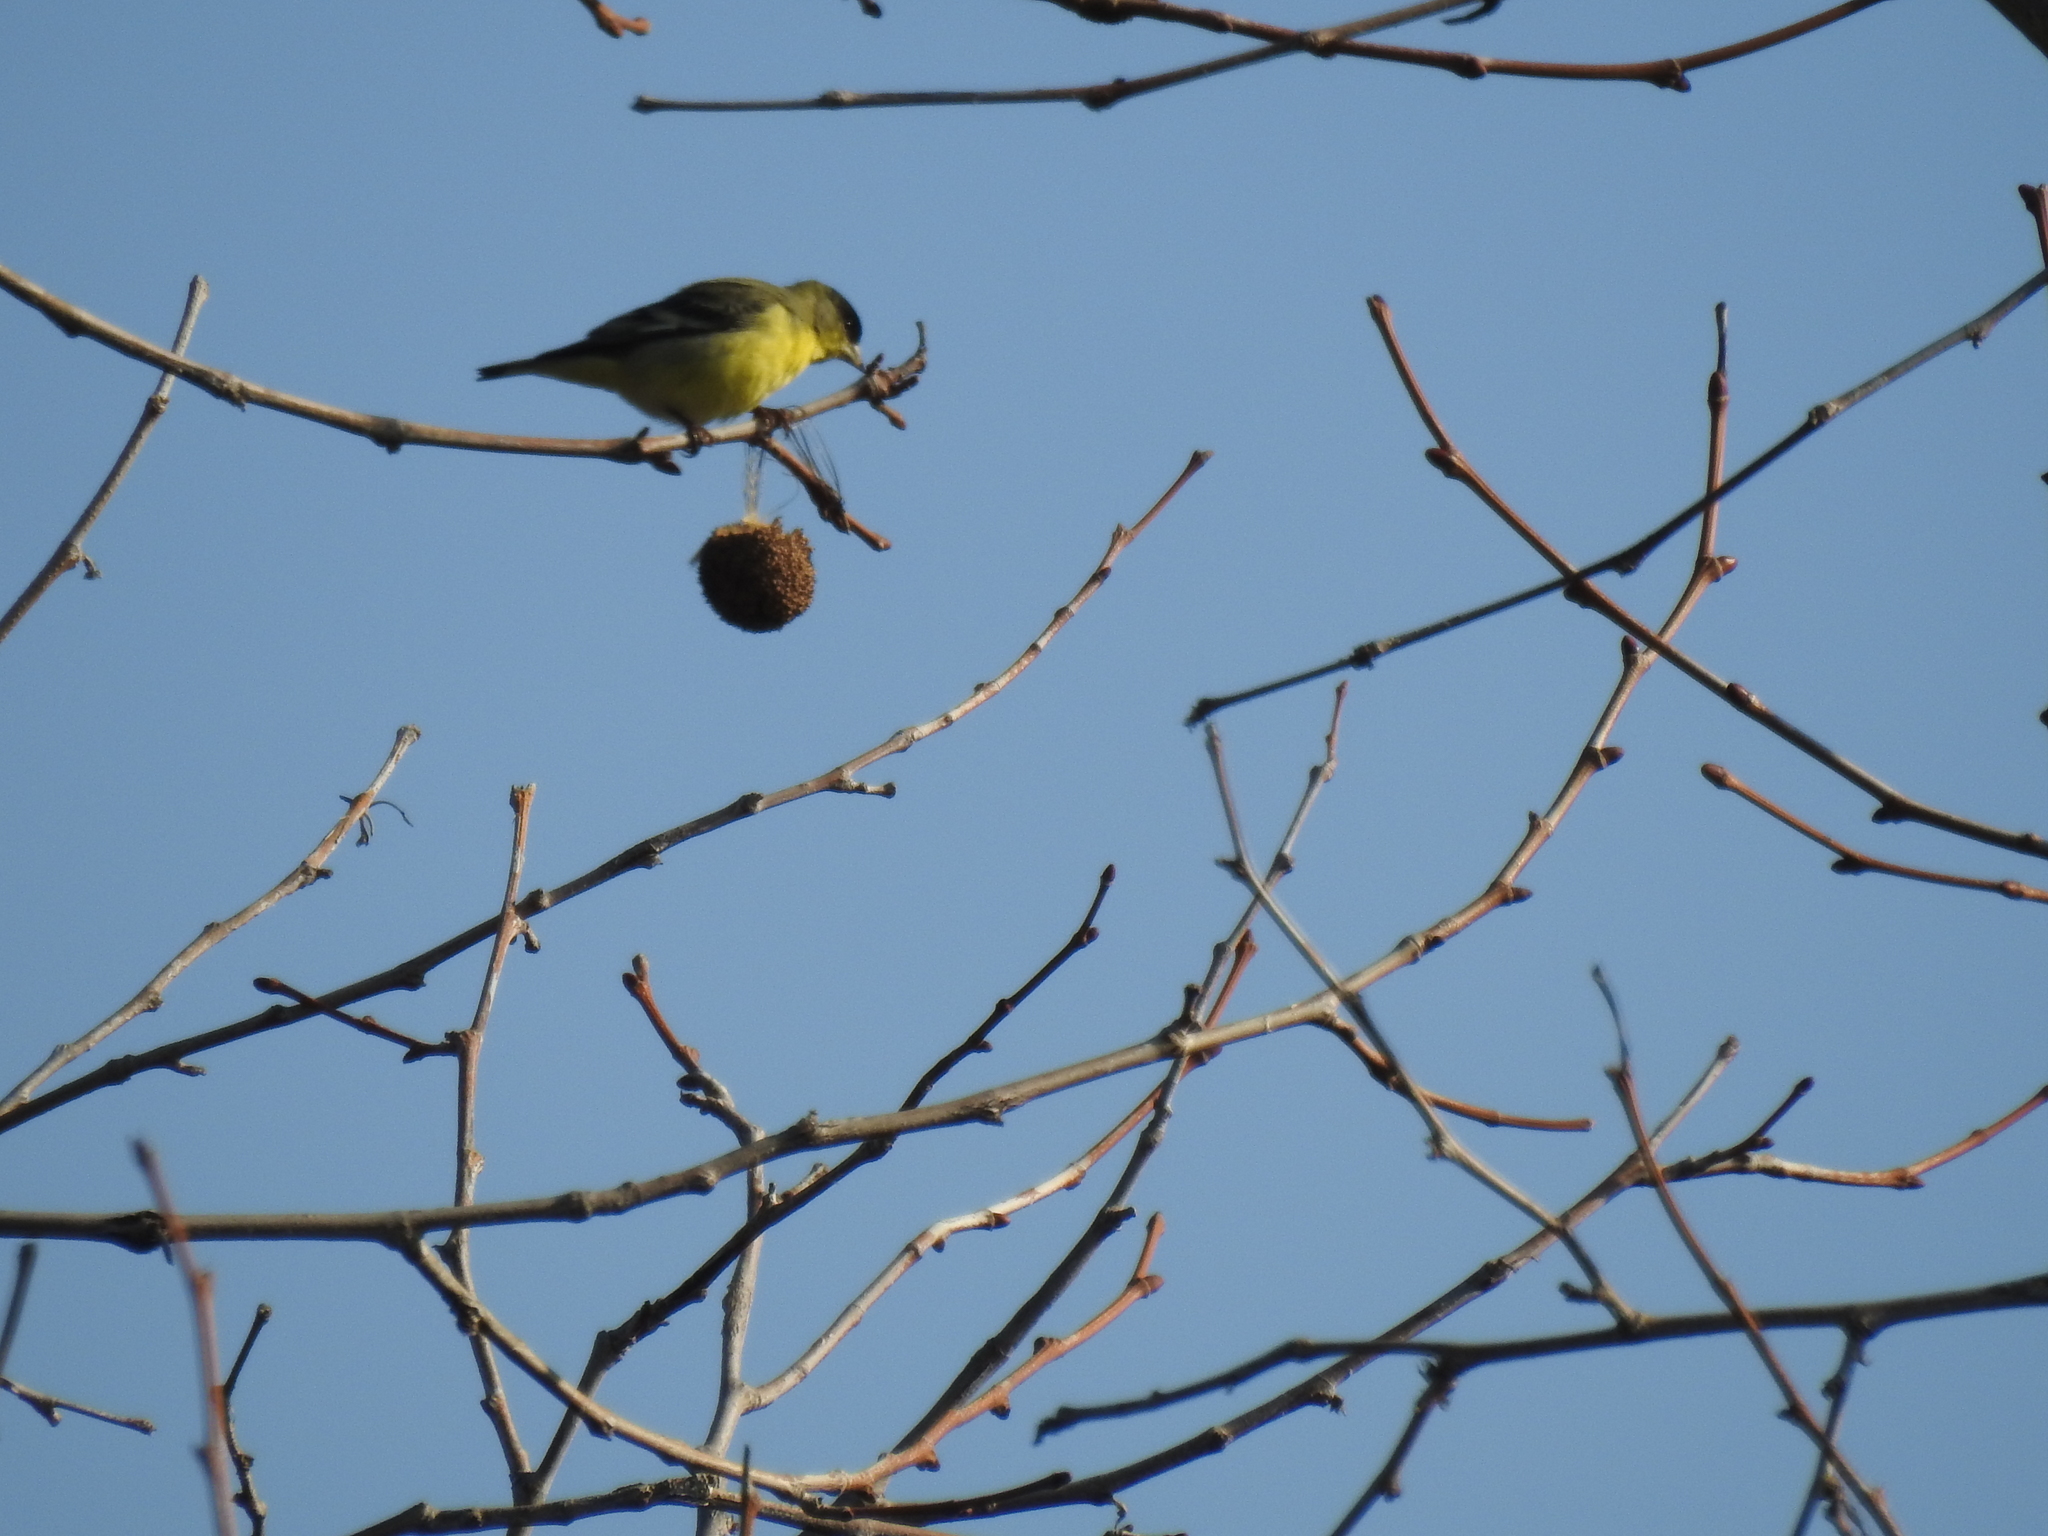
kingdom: Animalia
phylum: Chordata
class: Aves
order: Passeriformes
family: Fringillidae
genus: Spinus
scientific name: Spinus psaltria
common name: Lesser goldfinch
